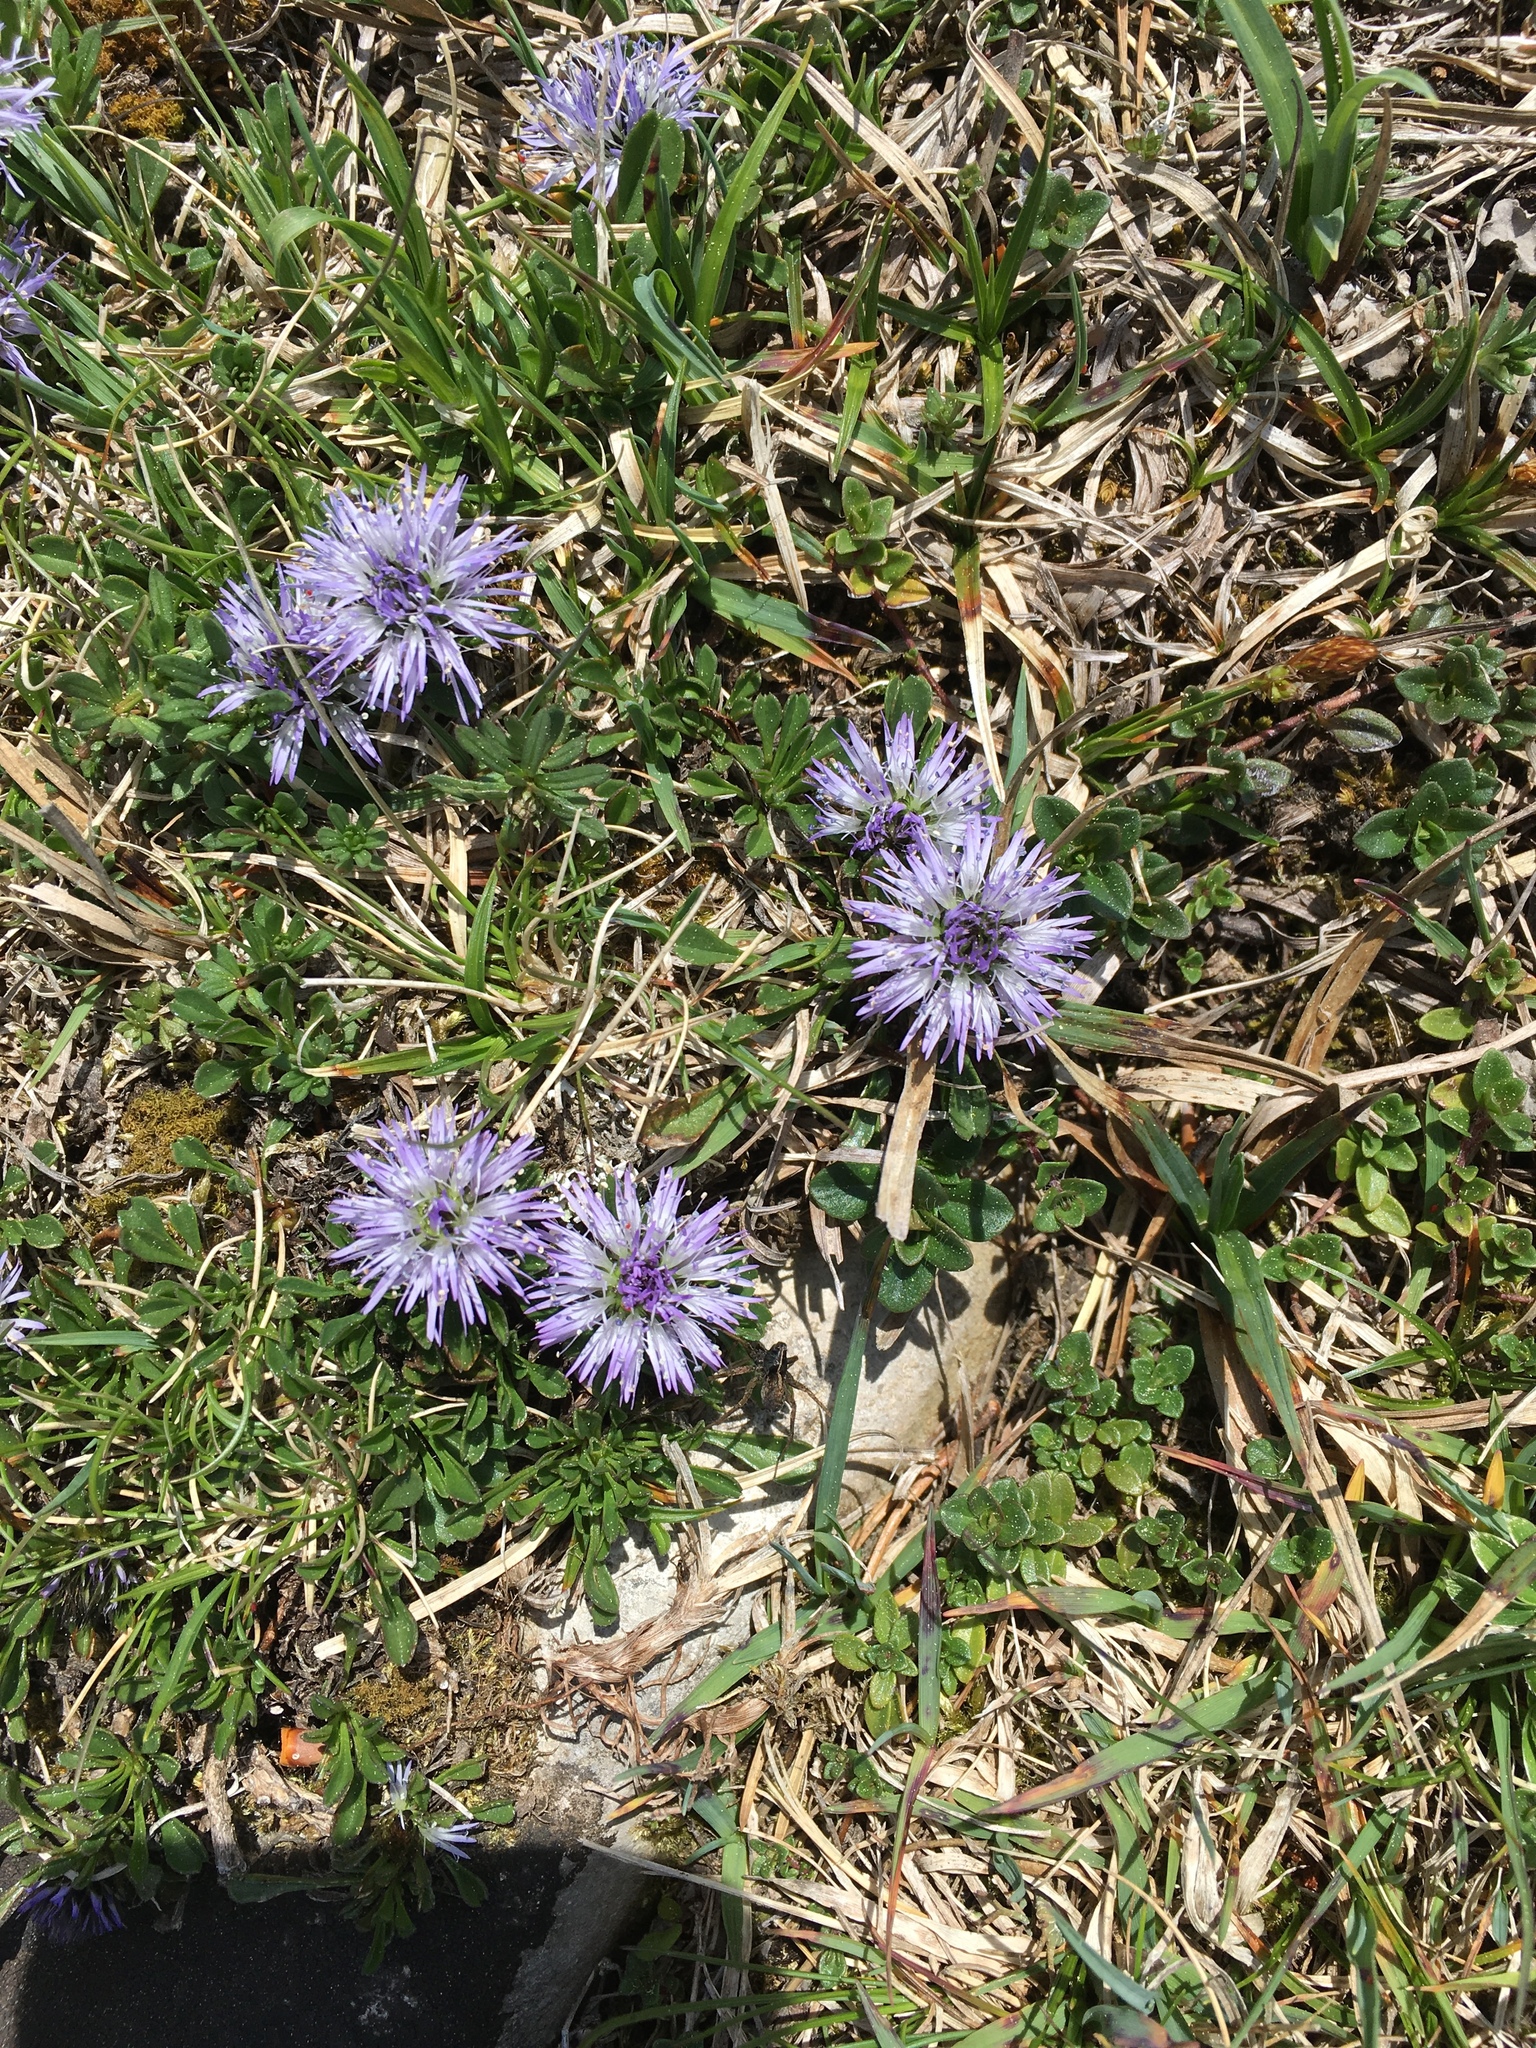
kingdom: Plantae
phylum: Tracheophyta
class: Magnoliopsida
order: Lamiales
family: Plantaginaceae
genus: Globularia
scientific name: Globularia cordifolia
